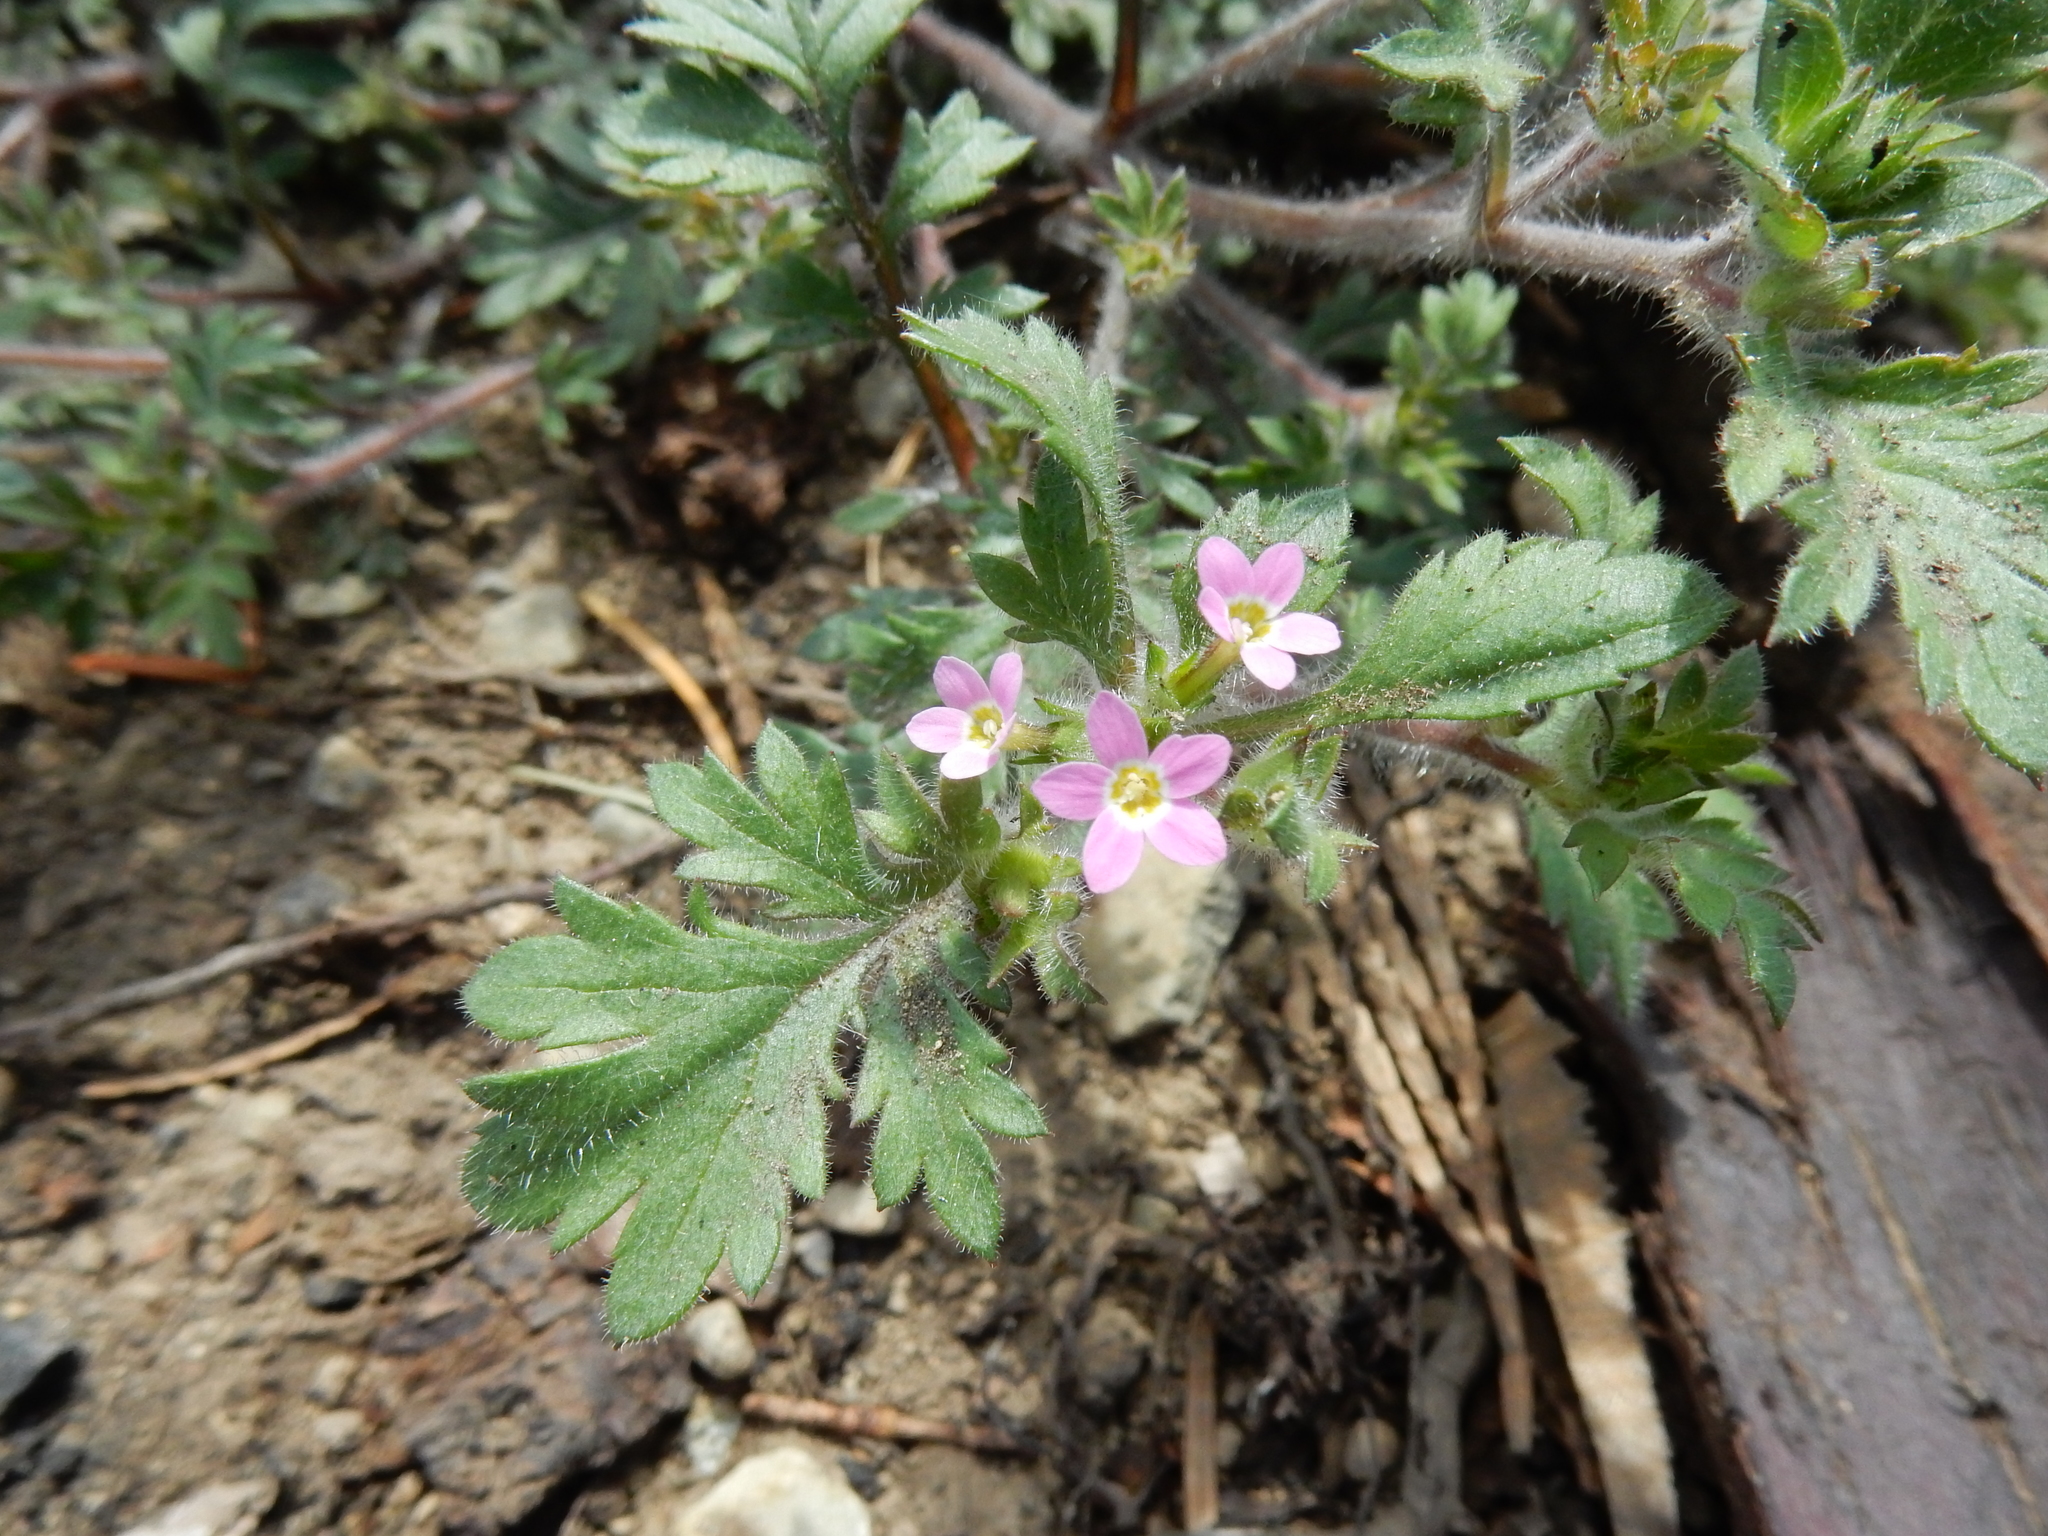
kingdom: Plantae
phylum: Tracheophyta
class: Magnoliopsida
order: Ericales
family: Polemoniaceae
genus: Collomia
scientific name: Collomia heterophylla
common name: Variable-leaved collomia
